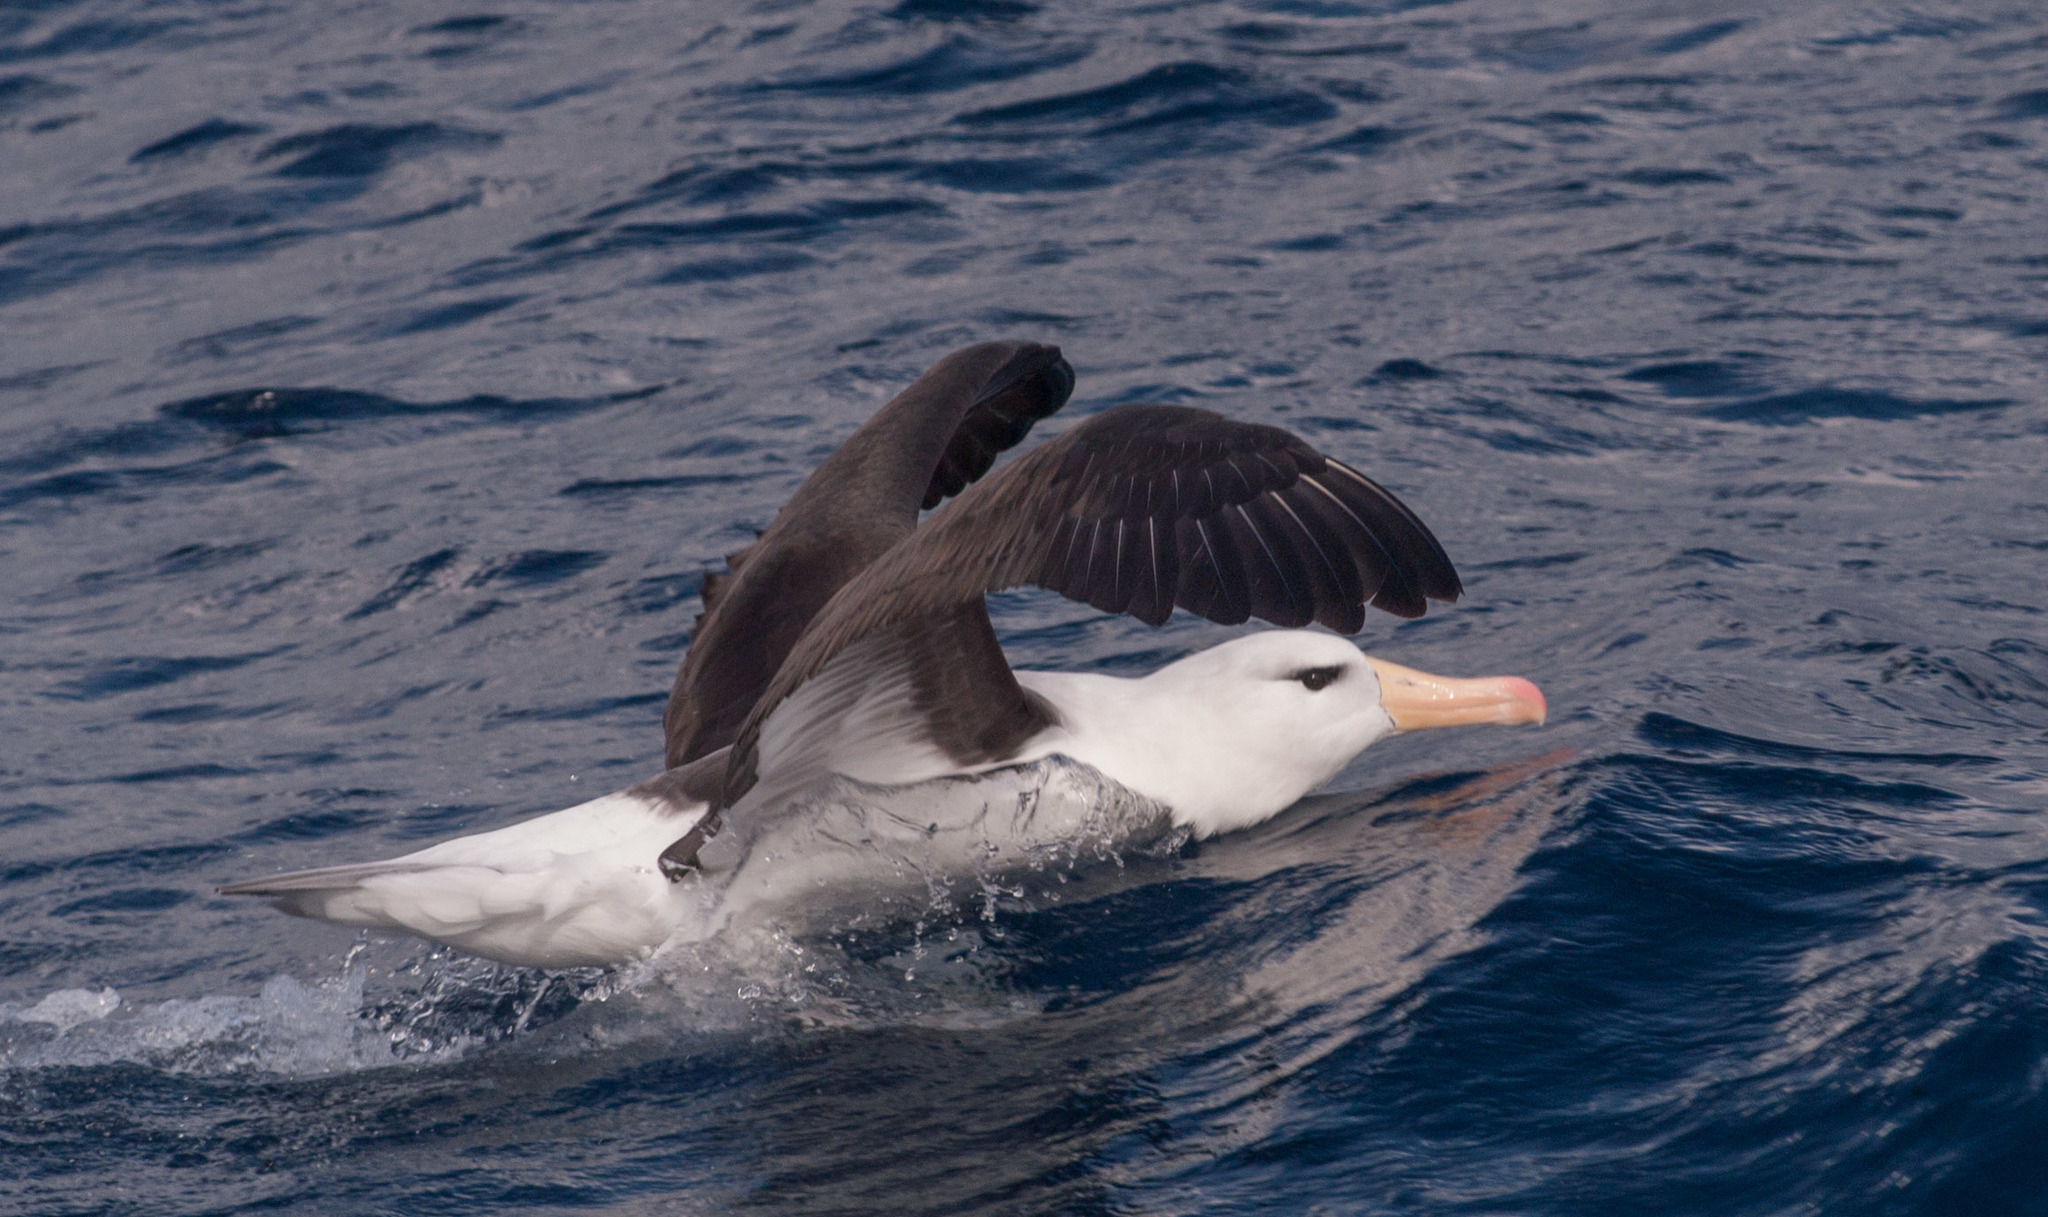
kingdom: Animalia
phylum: Chordata
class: Aves
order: Procellariiformes
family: Diomedeidae
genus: Thalassarche
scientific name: Thalassarche melanophris
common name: Black-browed albatross
